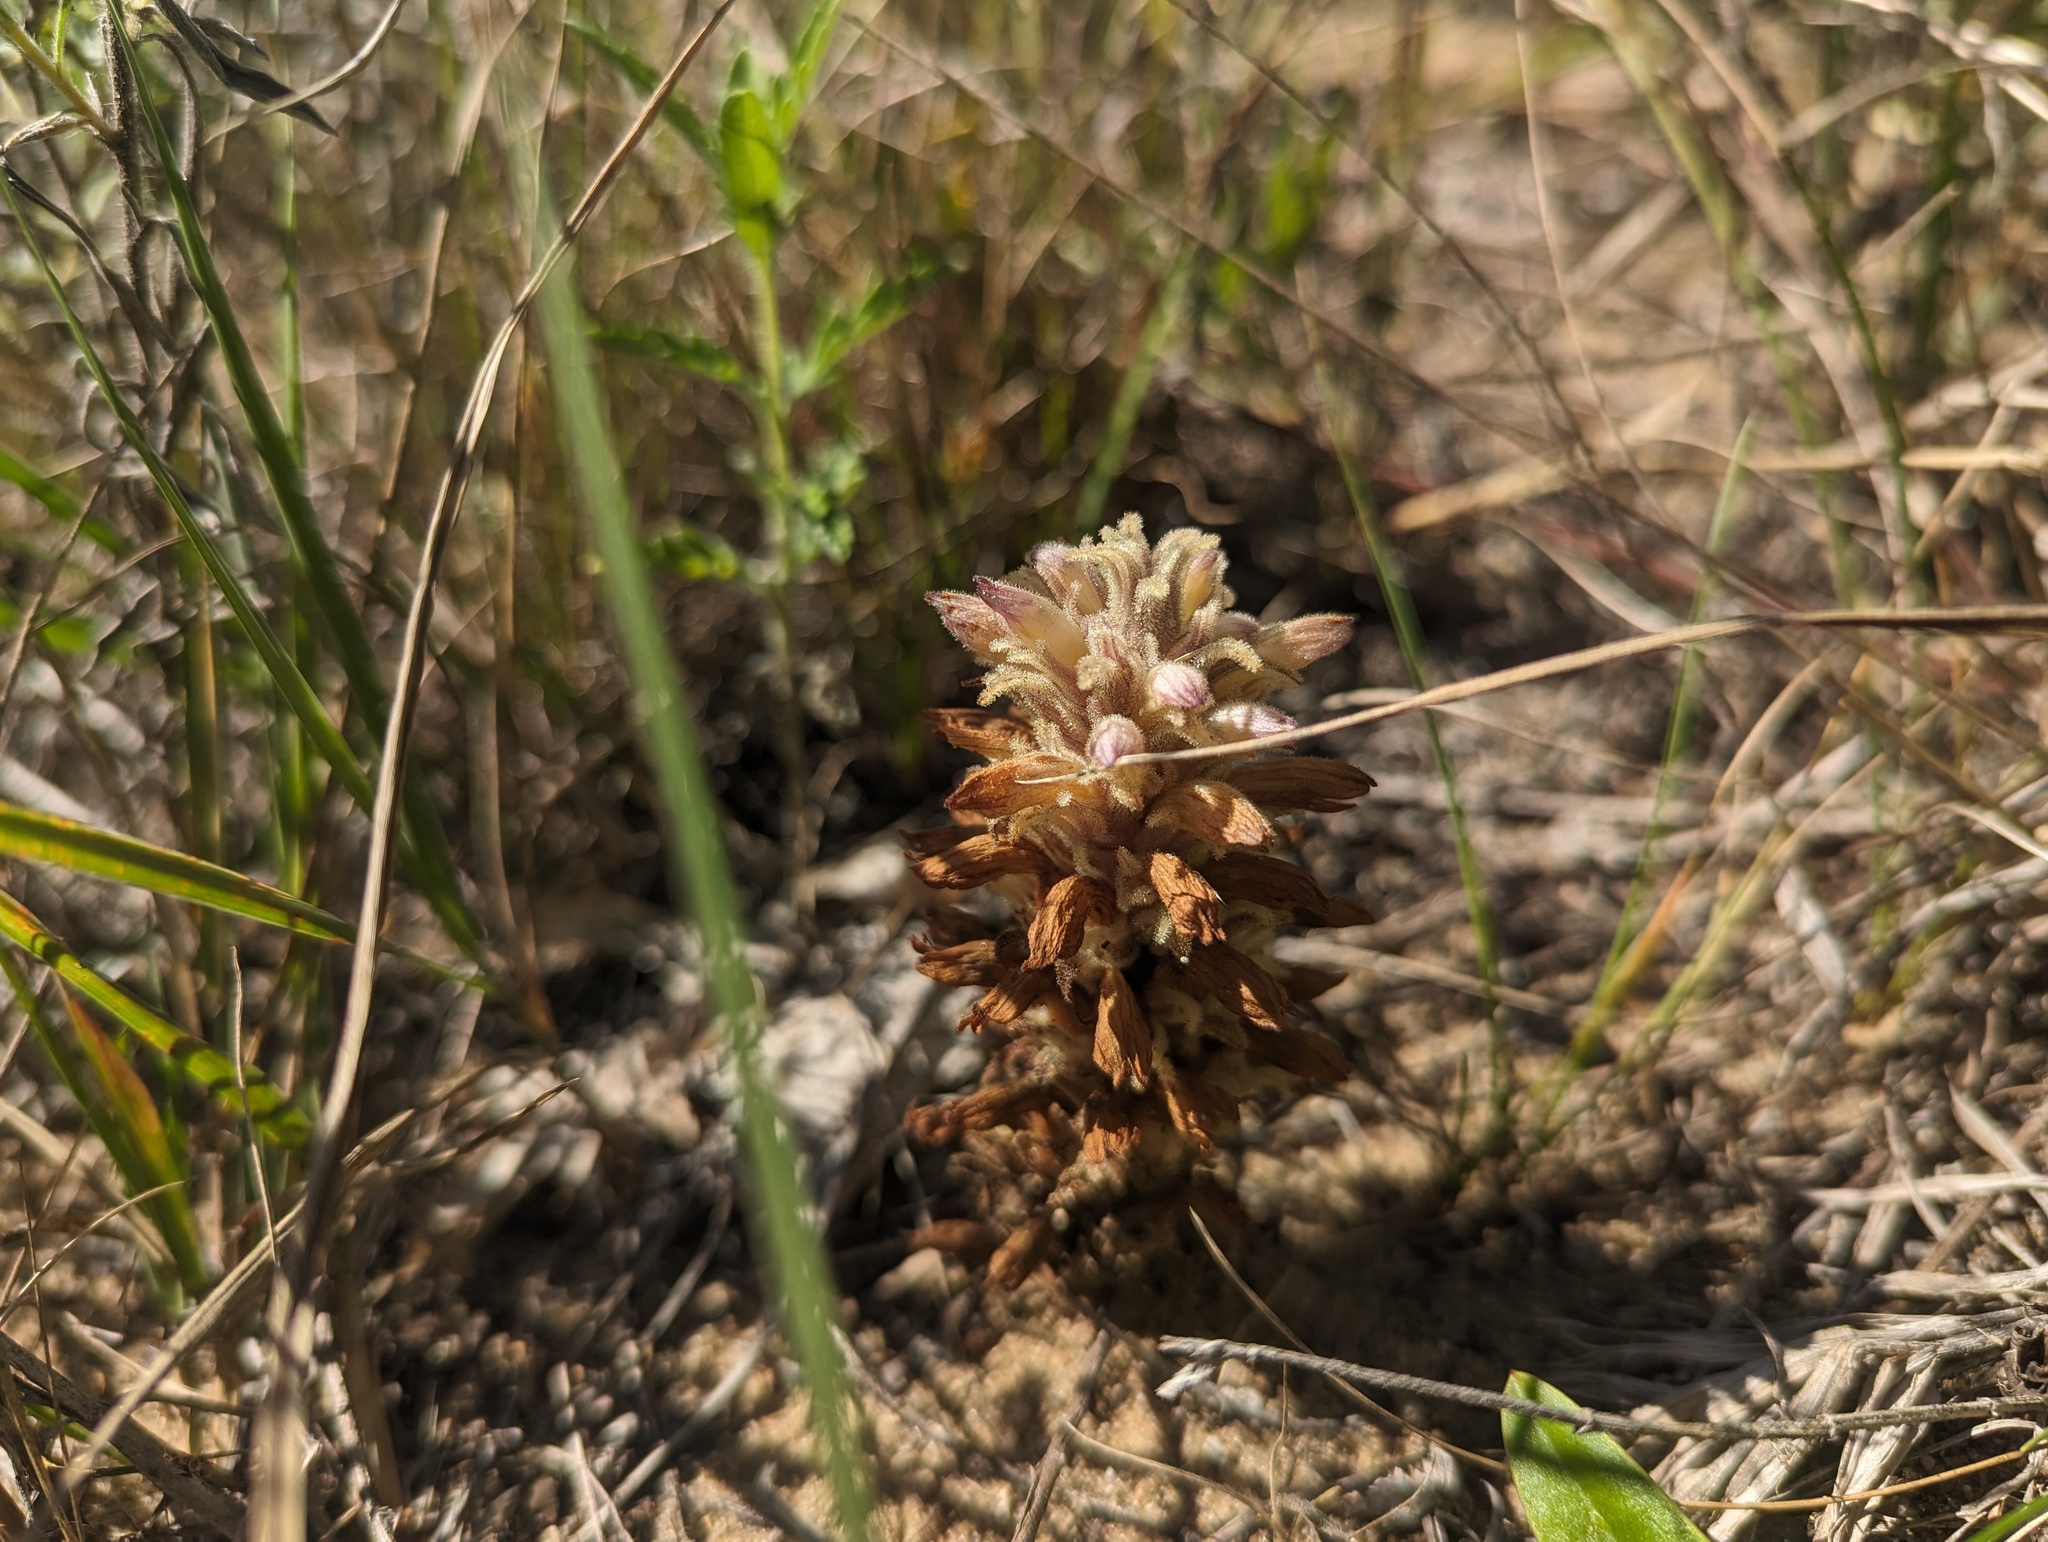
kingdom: Plantae
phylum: Tracheophyta
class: Magnoliopsida
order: Lamiales
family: Orobanchaceae
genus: Aphyllon
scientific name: Aphyllon ludovicianum
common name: Louisiana broomrape
